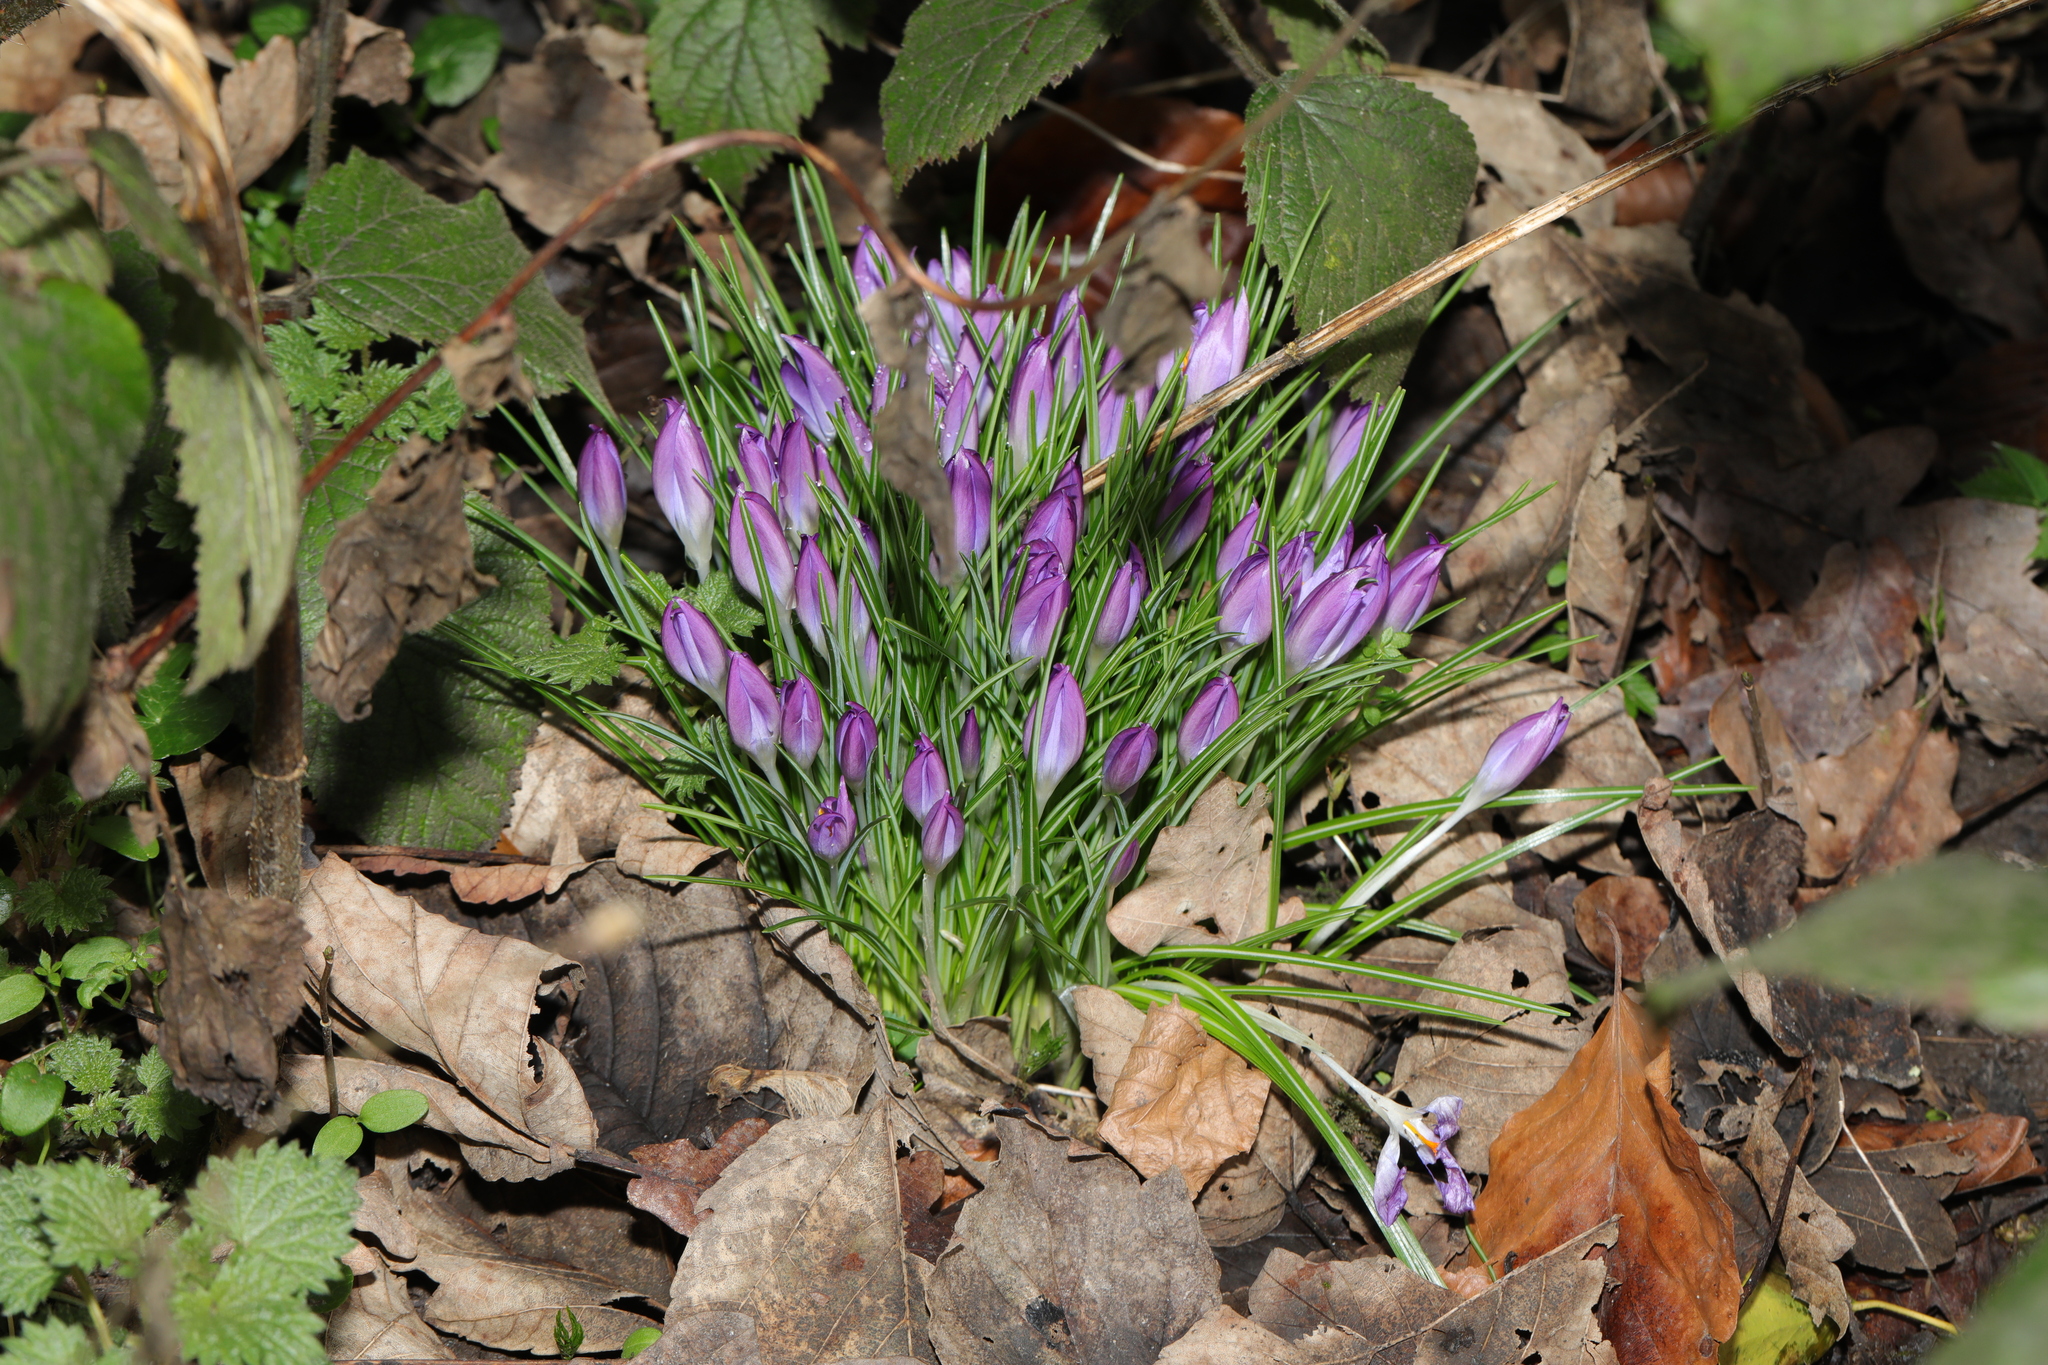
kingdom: Plantae
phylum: Tracheophyta
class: Liliopsida
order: Asparagales
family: Iridaceae
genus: Crocus
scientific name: Crocus tommasinianus
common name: Early crocus
